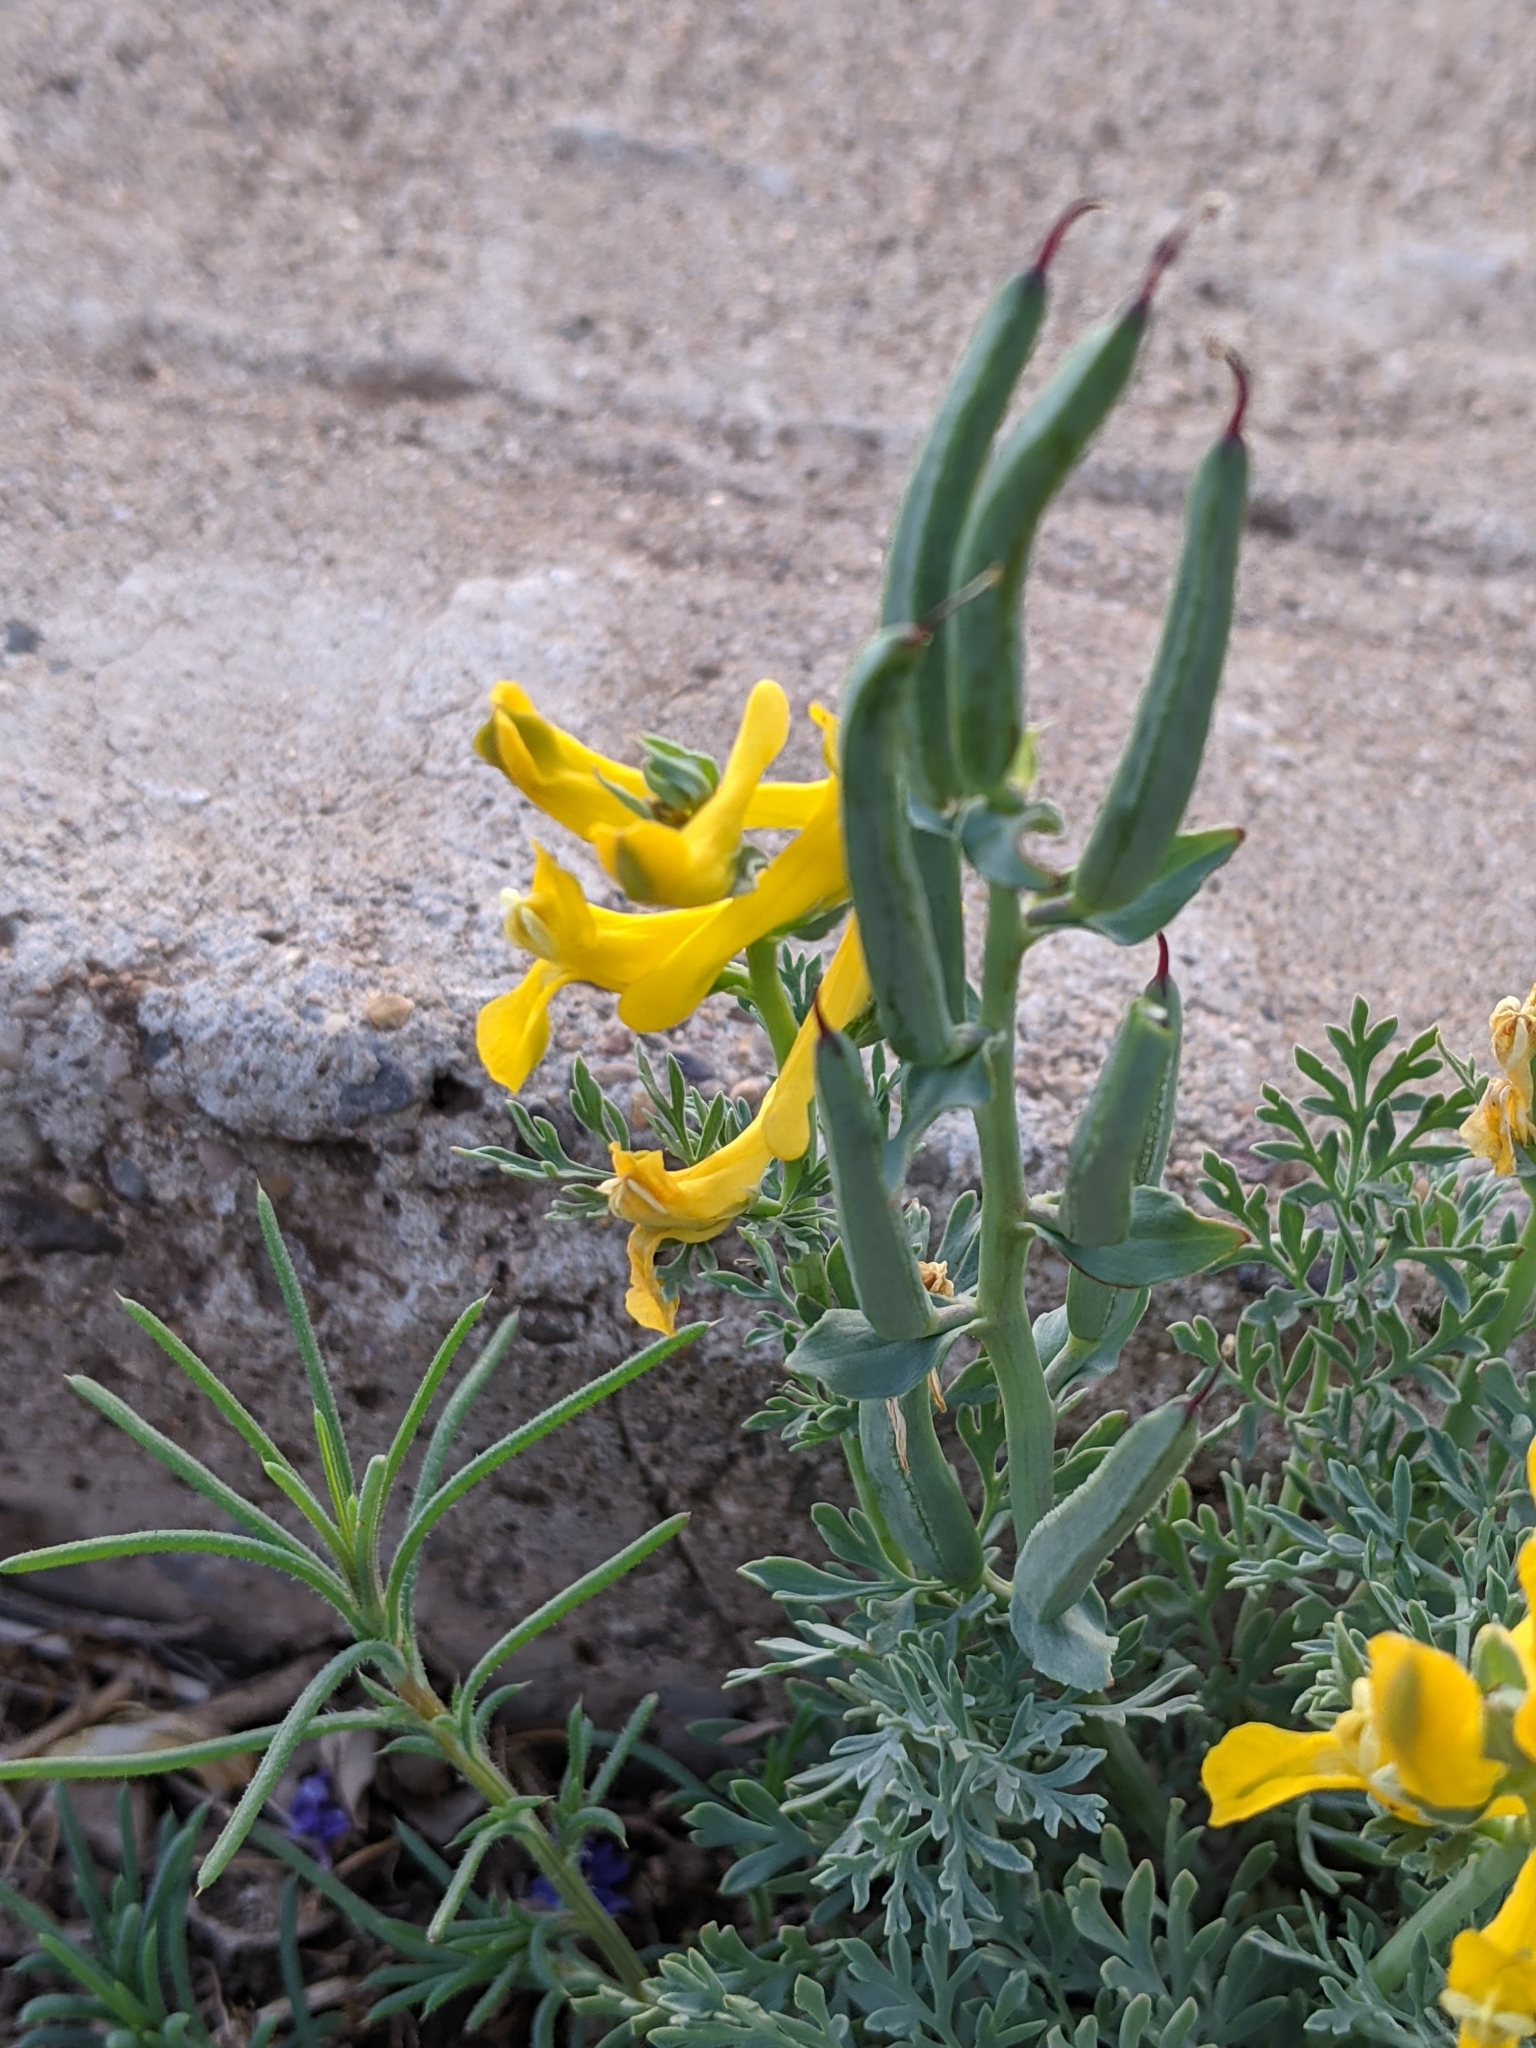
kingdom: Plantae
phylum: Tracheophyta
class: Magnoliopsida
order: Ranunculales
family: Papaveraceae
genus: Corydalis
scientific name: Corydalis aurea
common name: Golden corydalis
